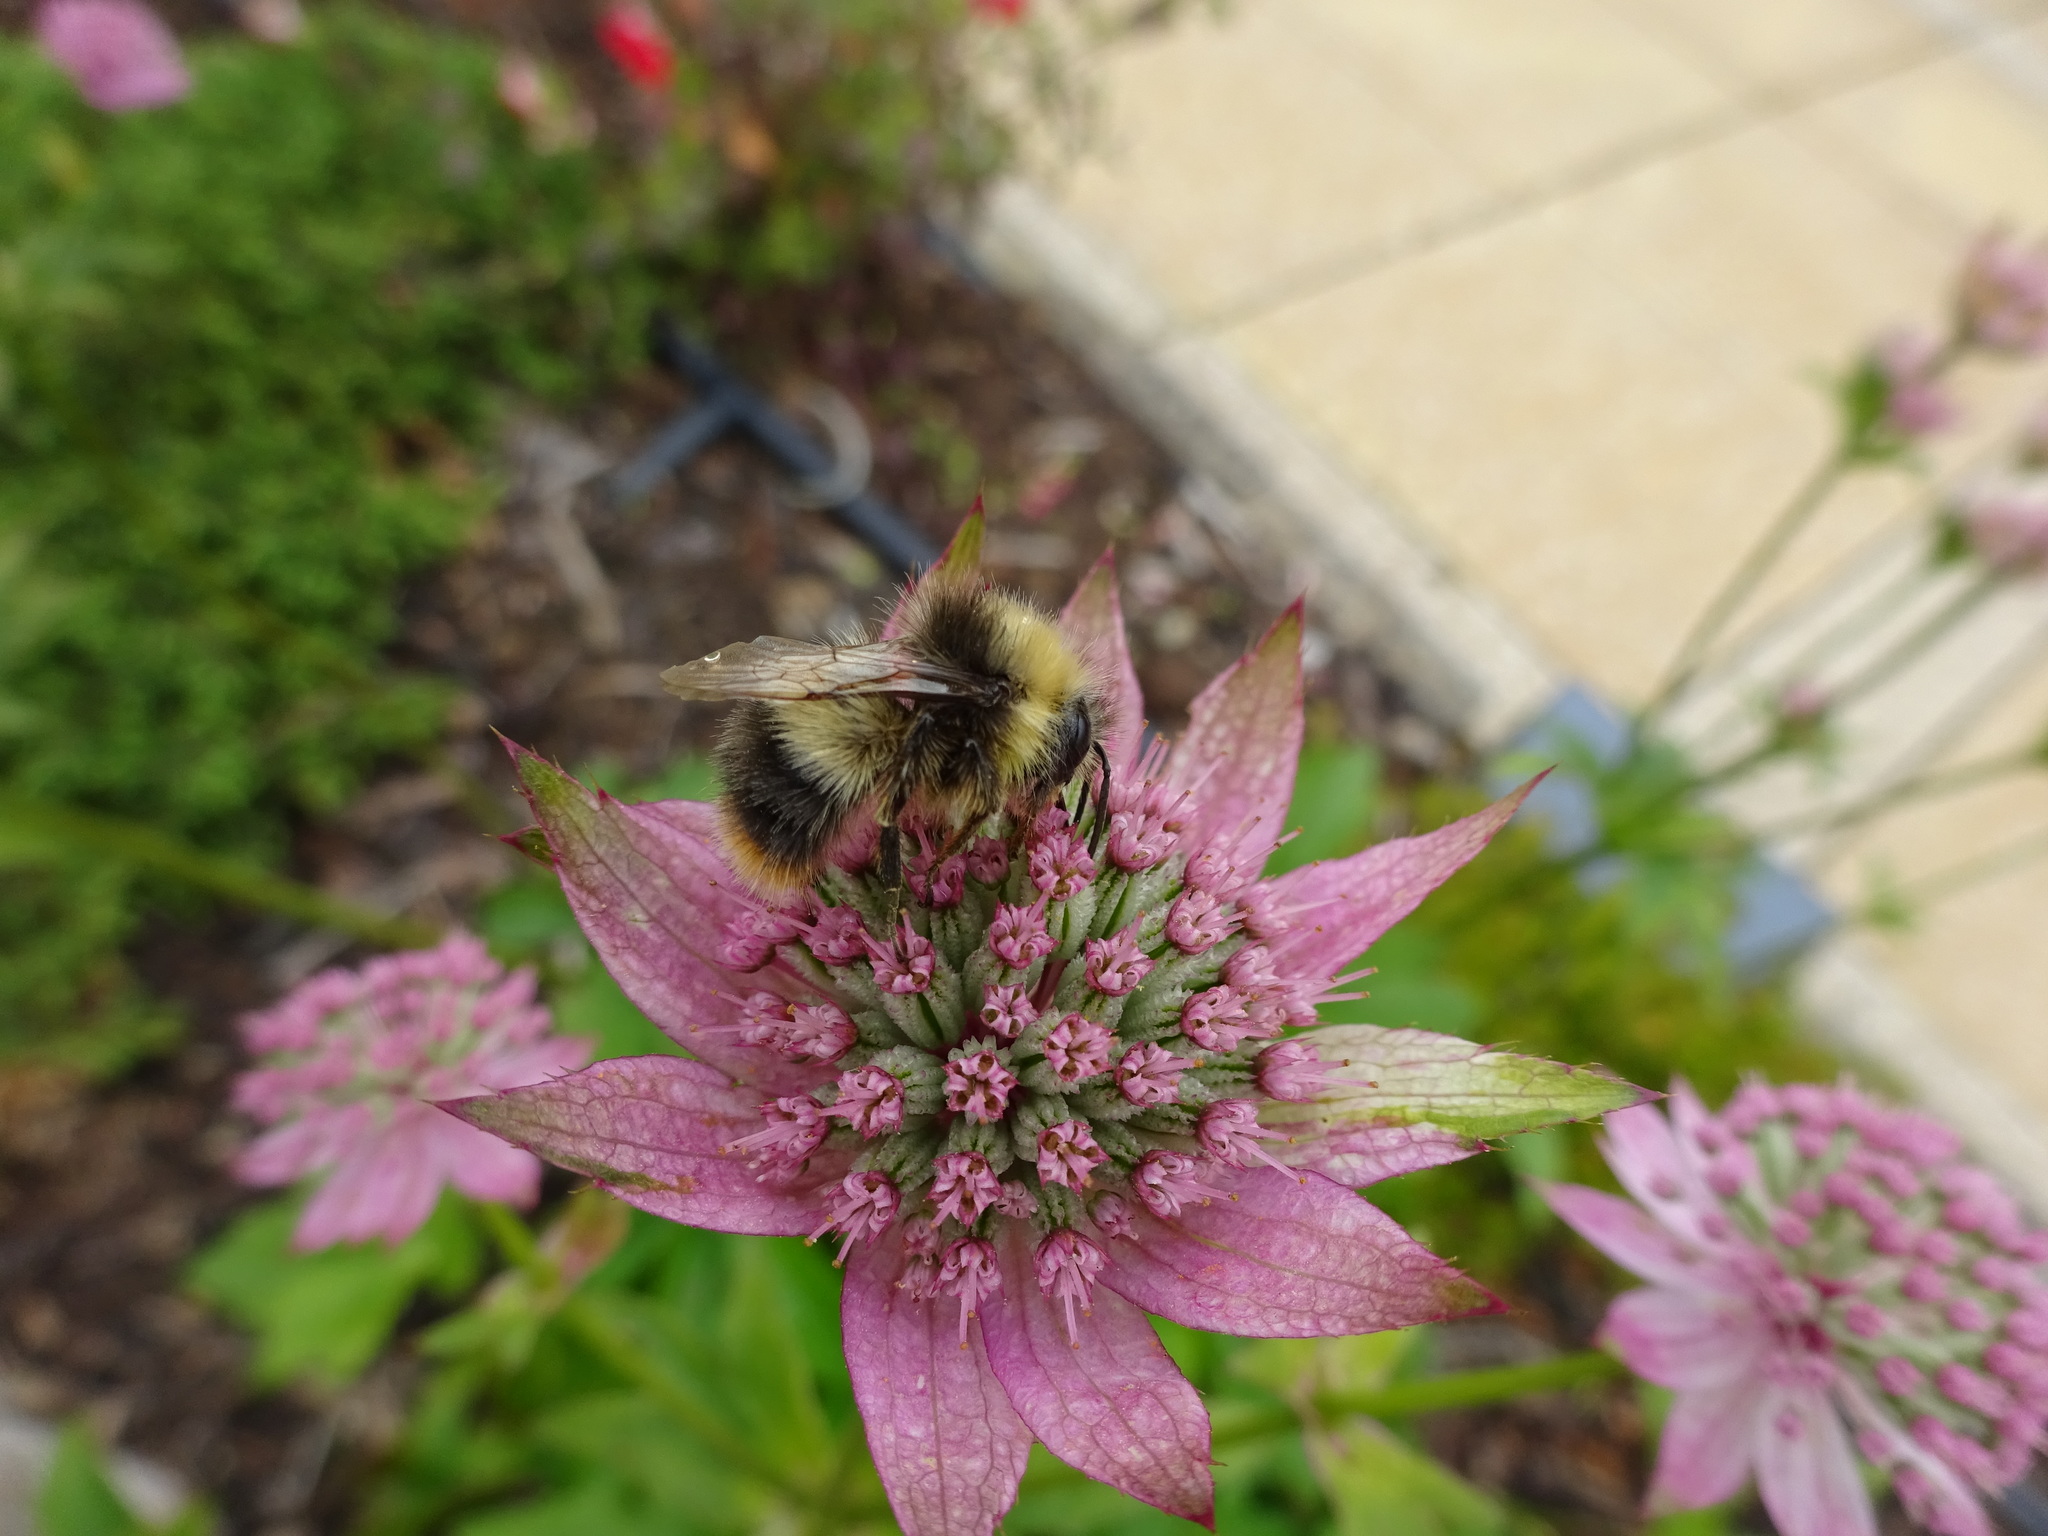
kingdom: Animalia
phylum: Arthropoda
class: Insecta
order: Hymenoptera
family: Apidae
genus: Bombus
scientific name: Bombus pratorum
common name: Early humble-bee
